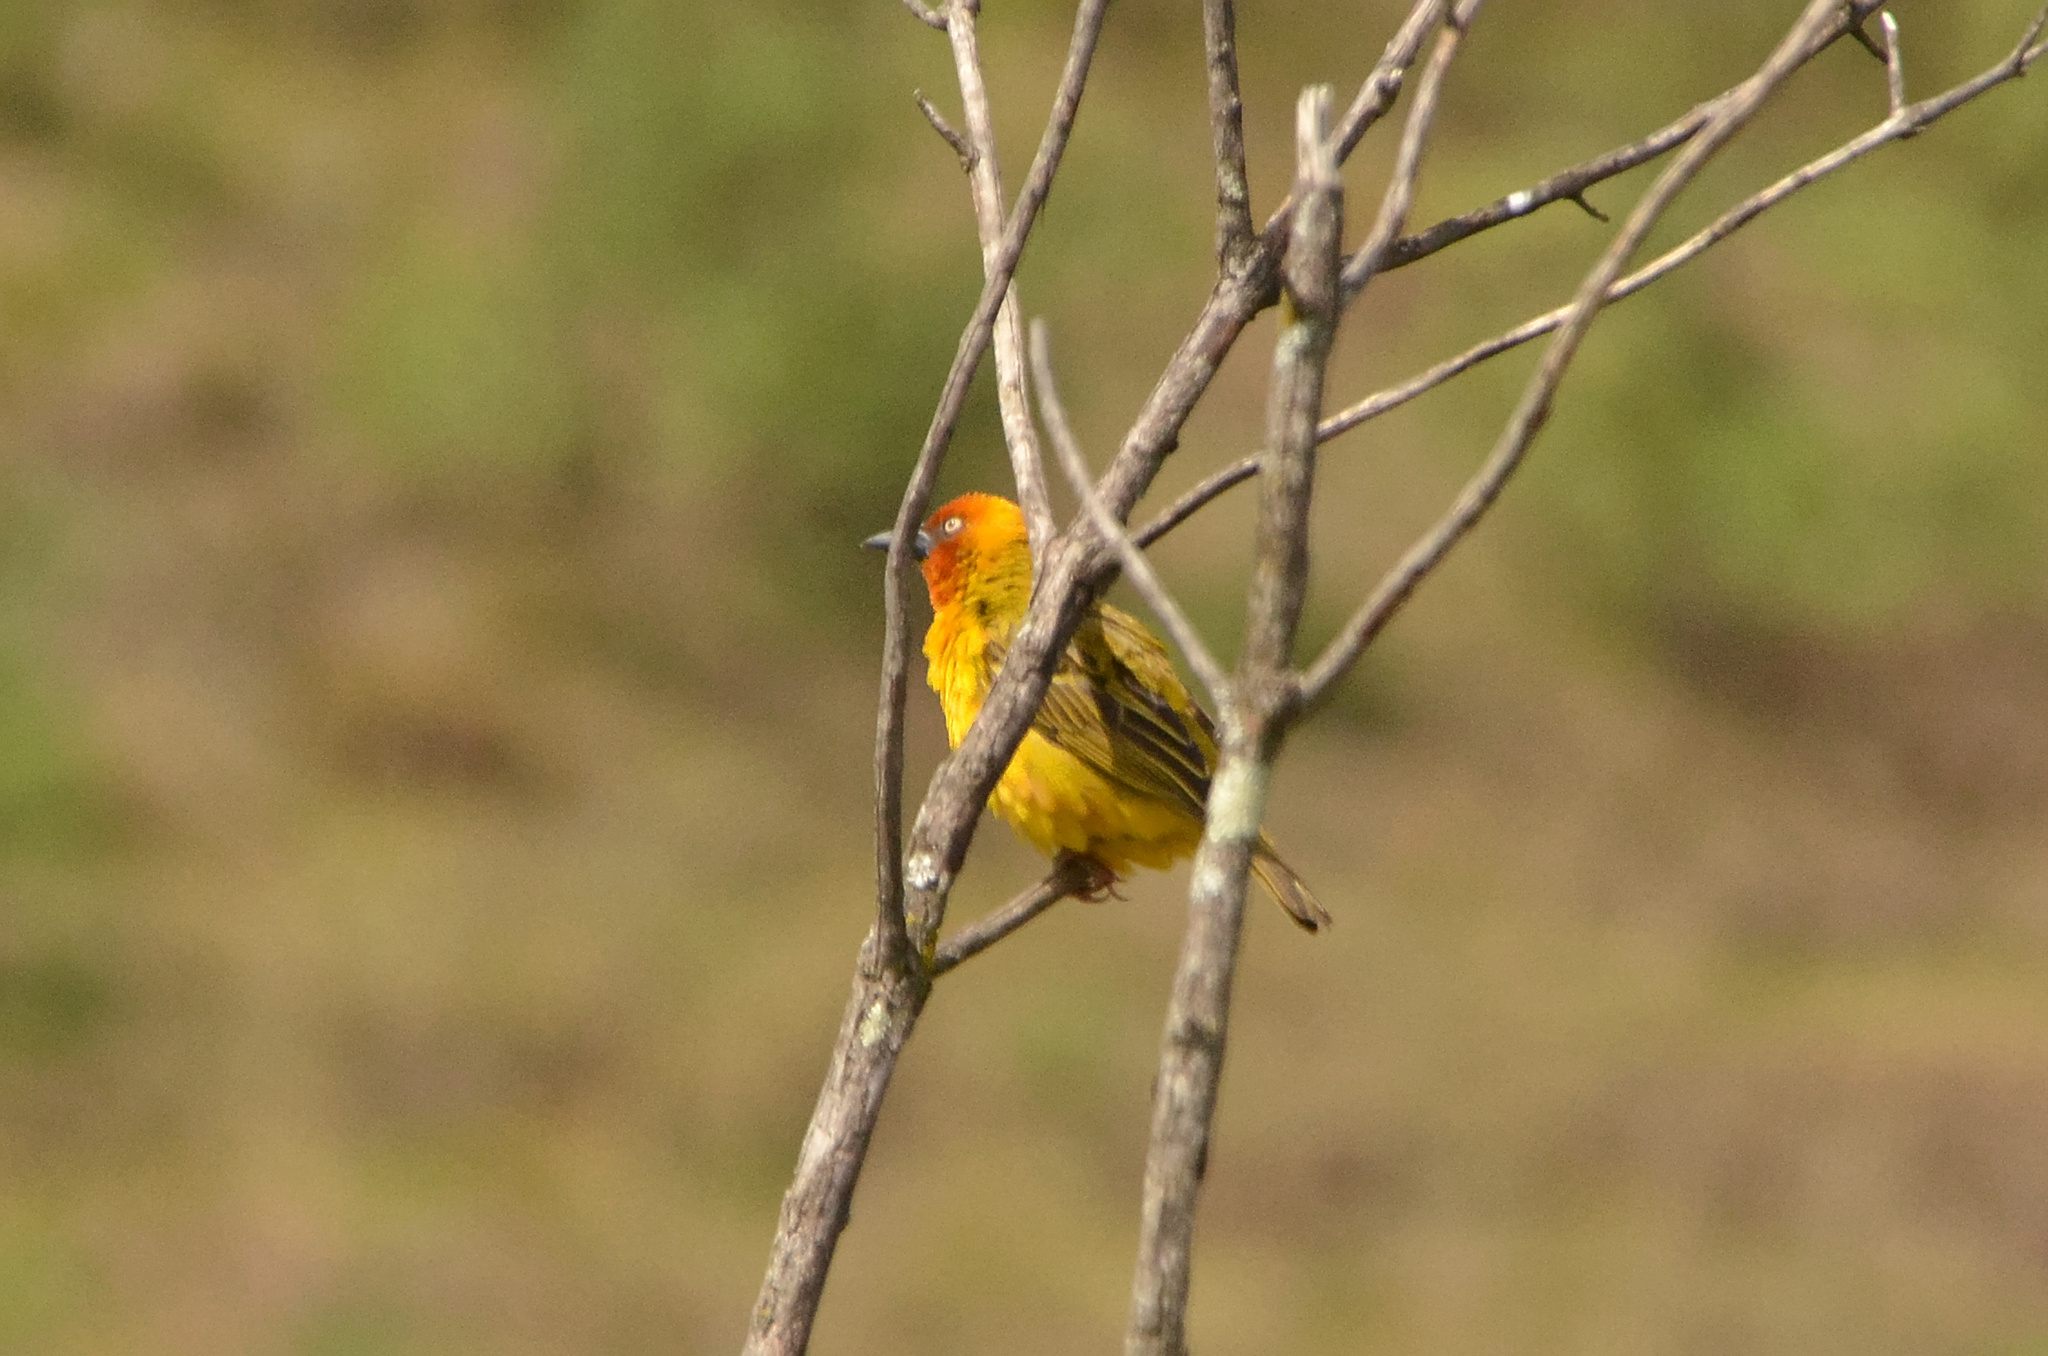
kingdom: Animalia
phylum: Chordata
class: Aves
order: Passeriformes
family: Ploceidae
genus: Ploceus
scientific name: Ploceus capensis
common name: Cape weaver
